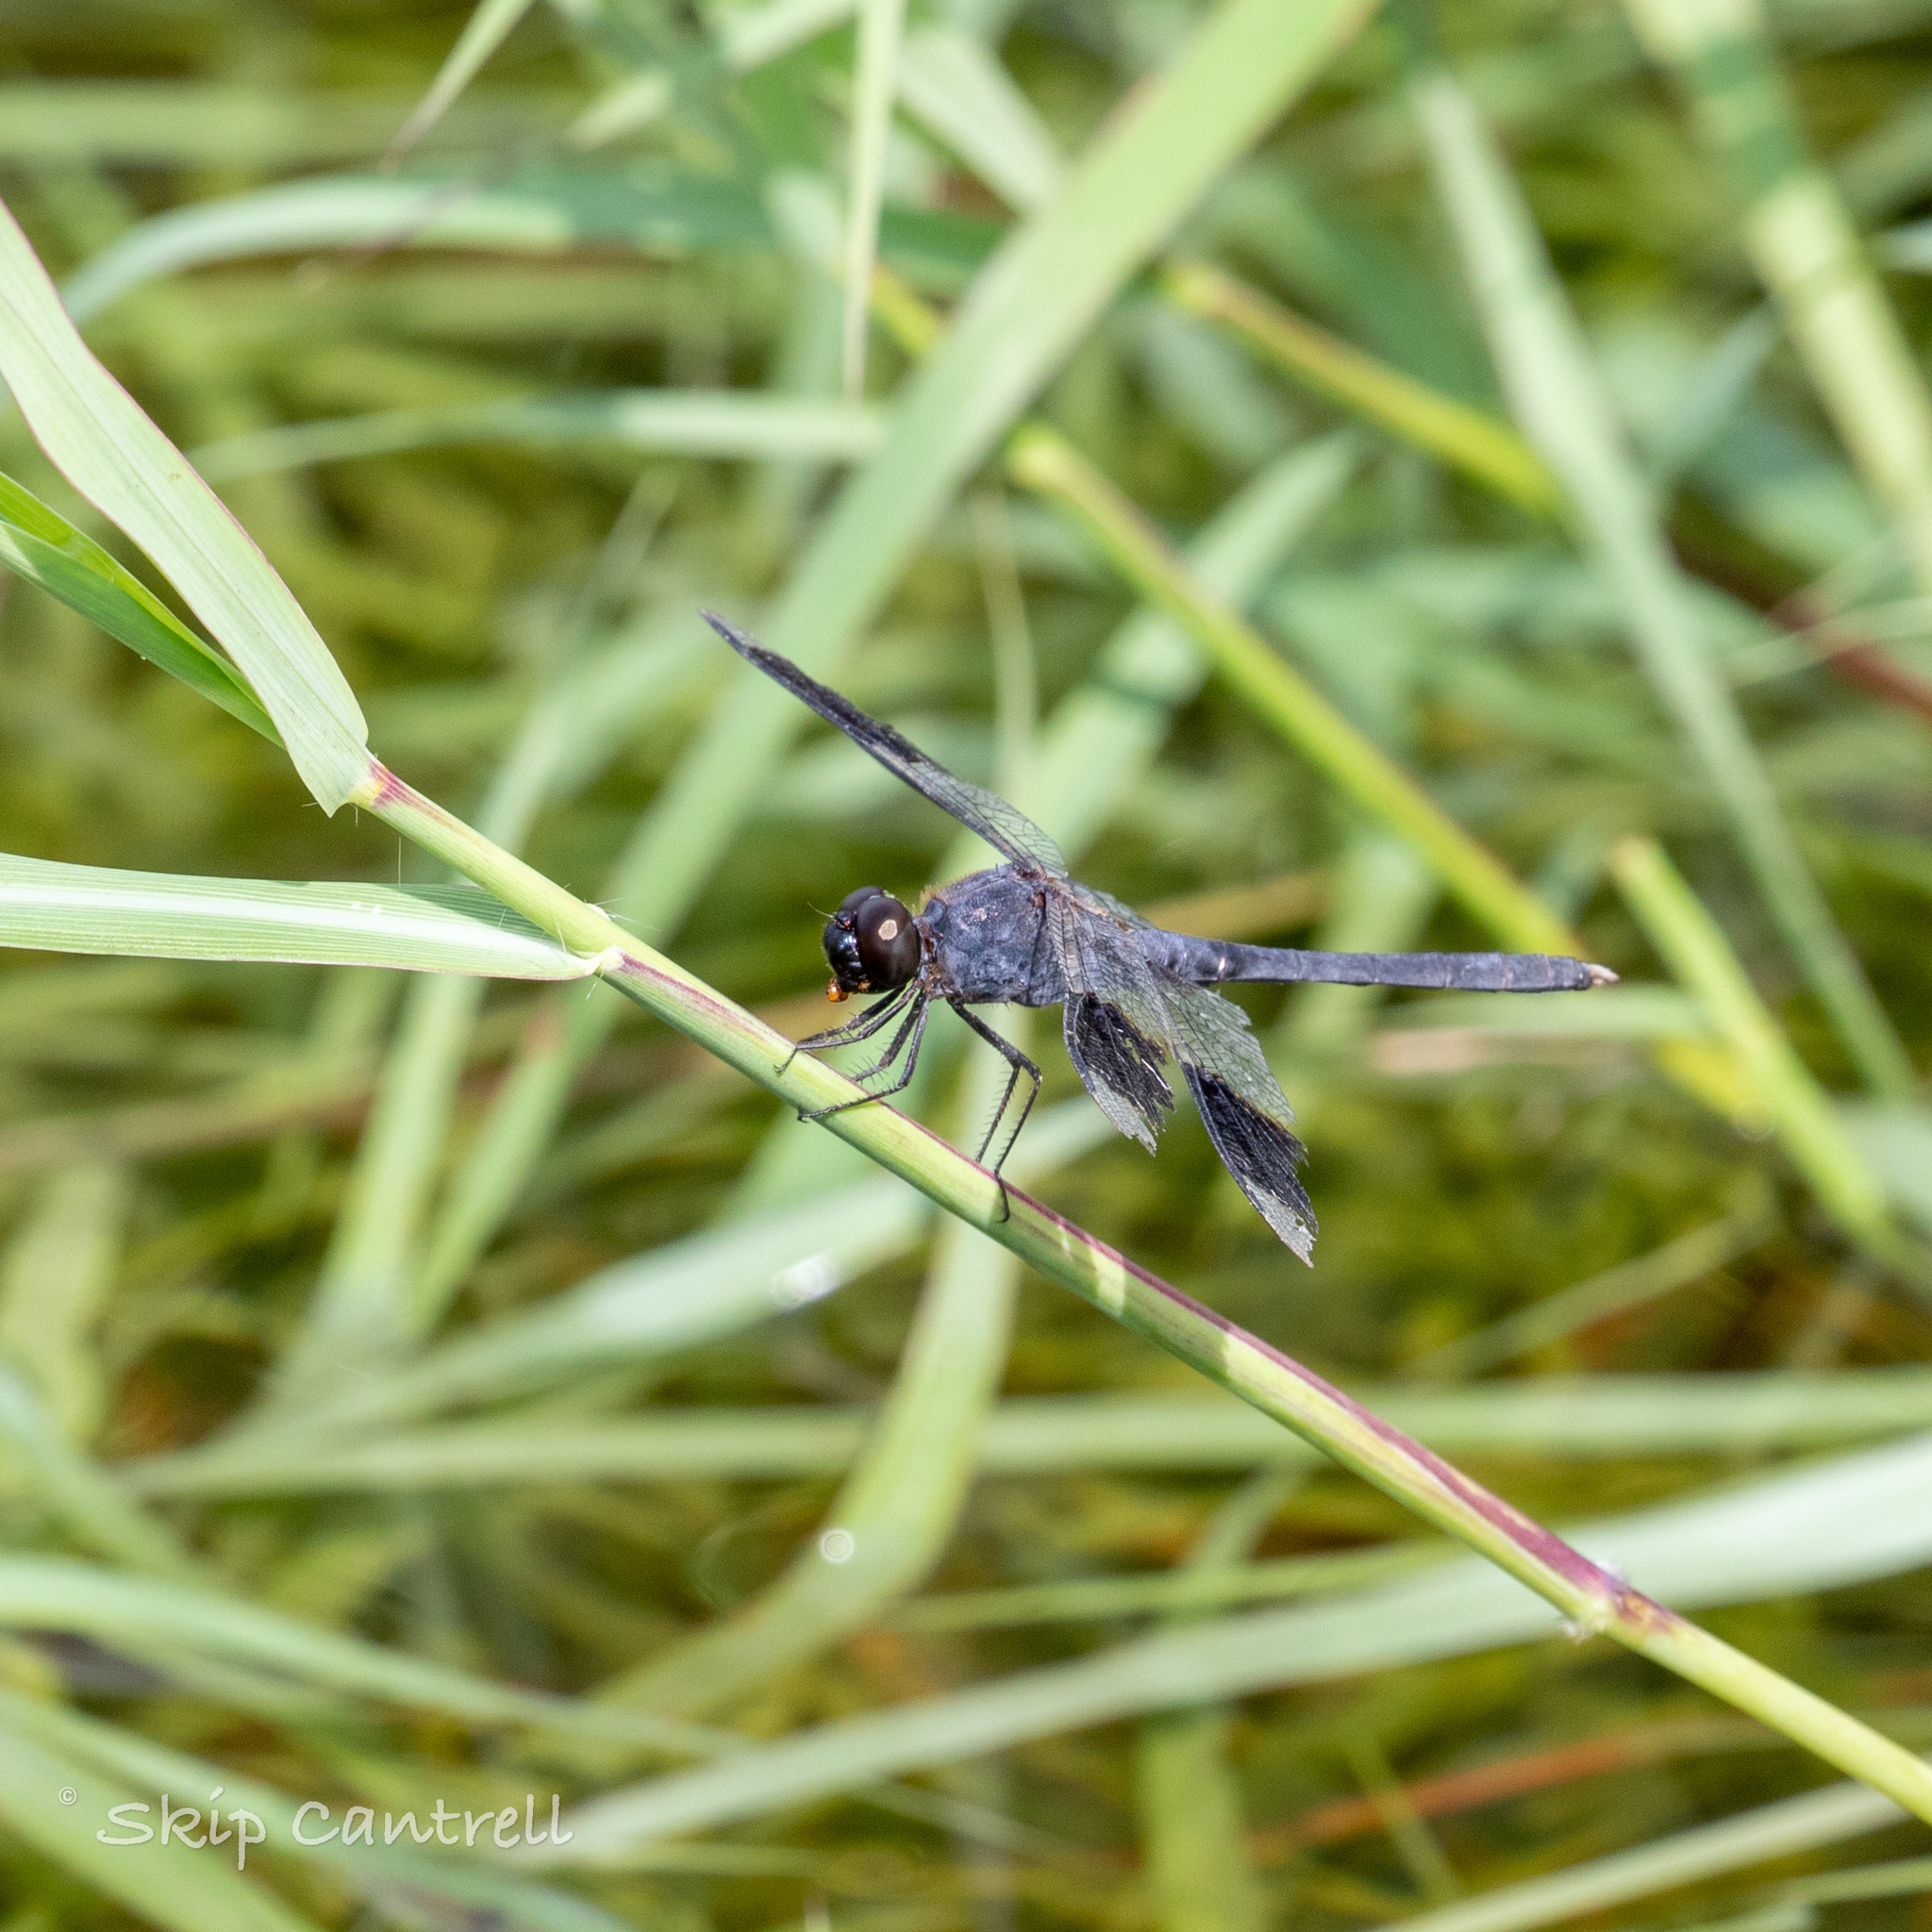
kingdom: Animalia
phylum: Arthropoda
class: Insecta
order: Odonata
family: Libellulidae
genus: Erythrodiplax
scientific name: Erythrodiplax umbrata
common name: Band-winged dragonlet
